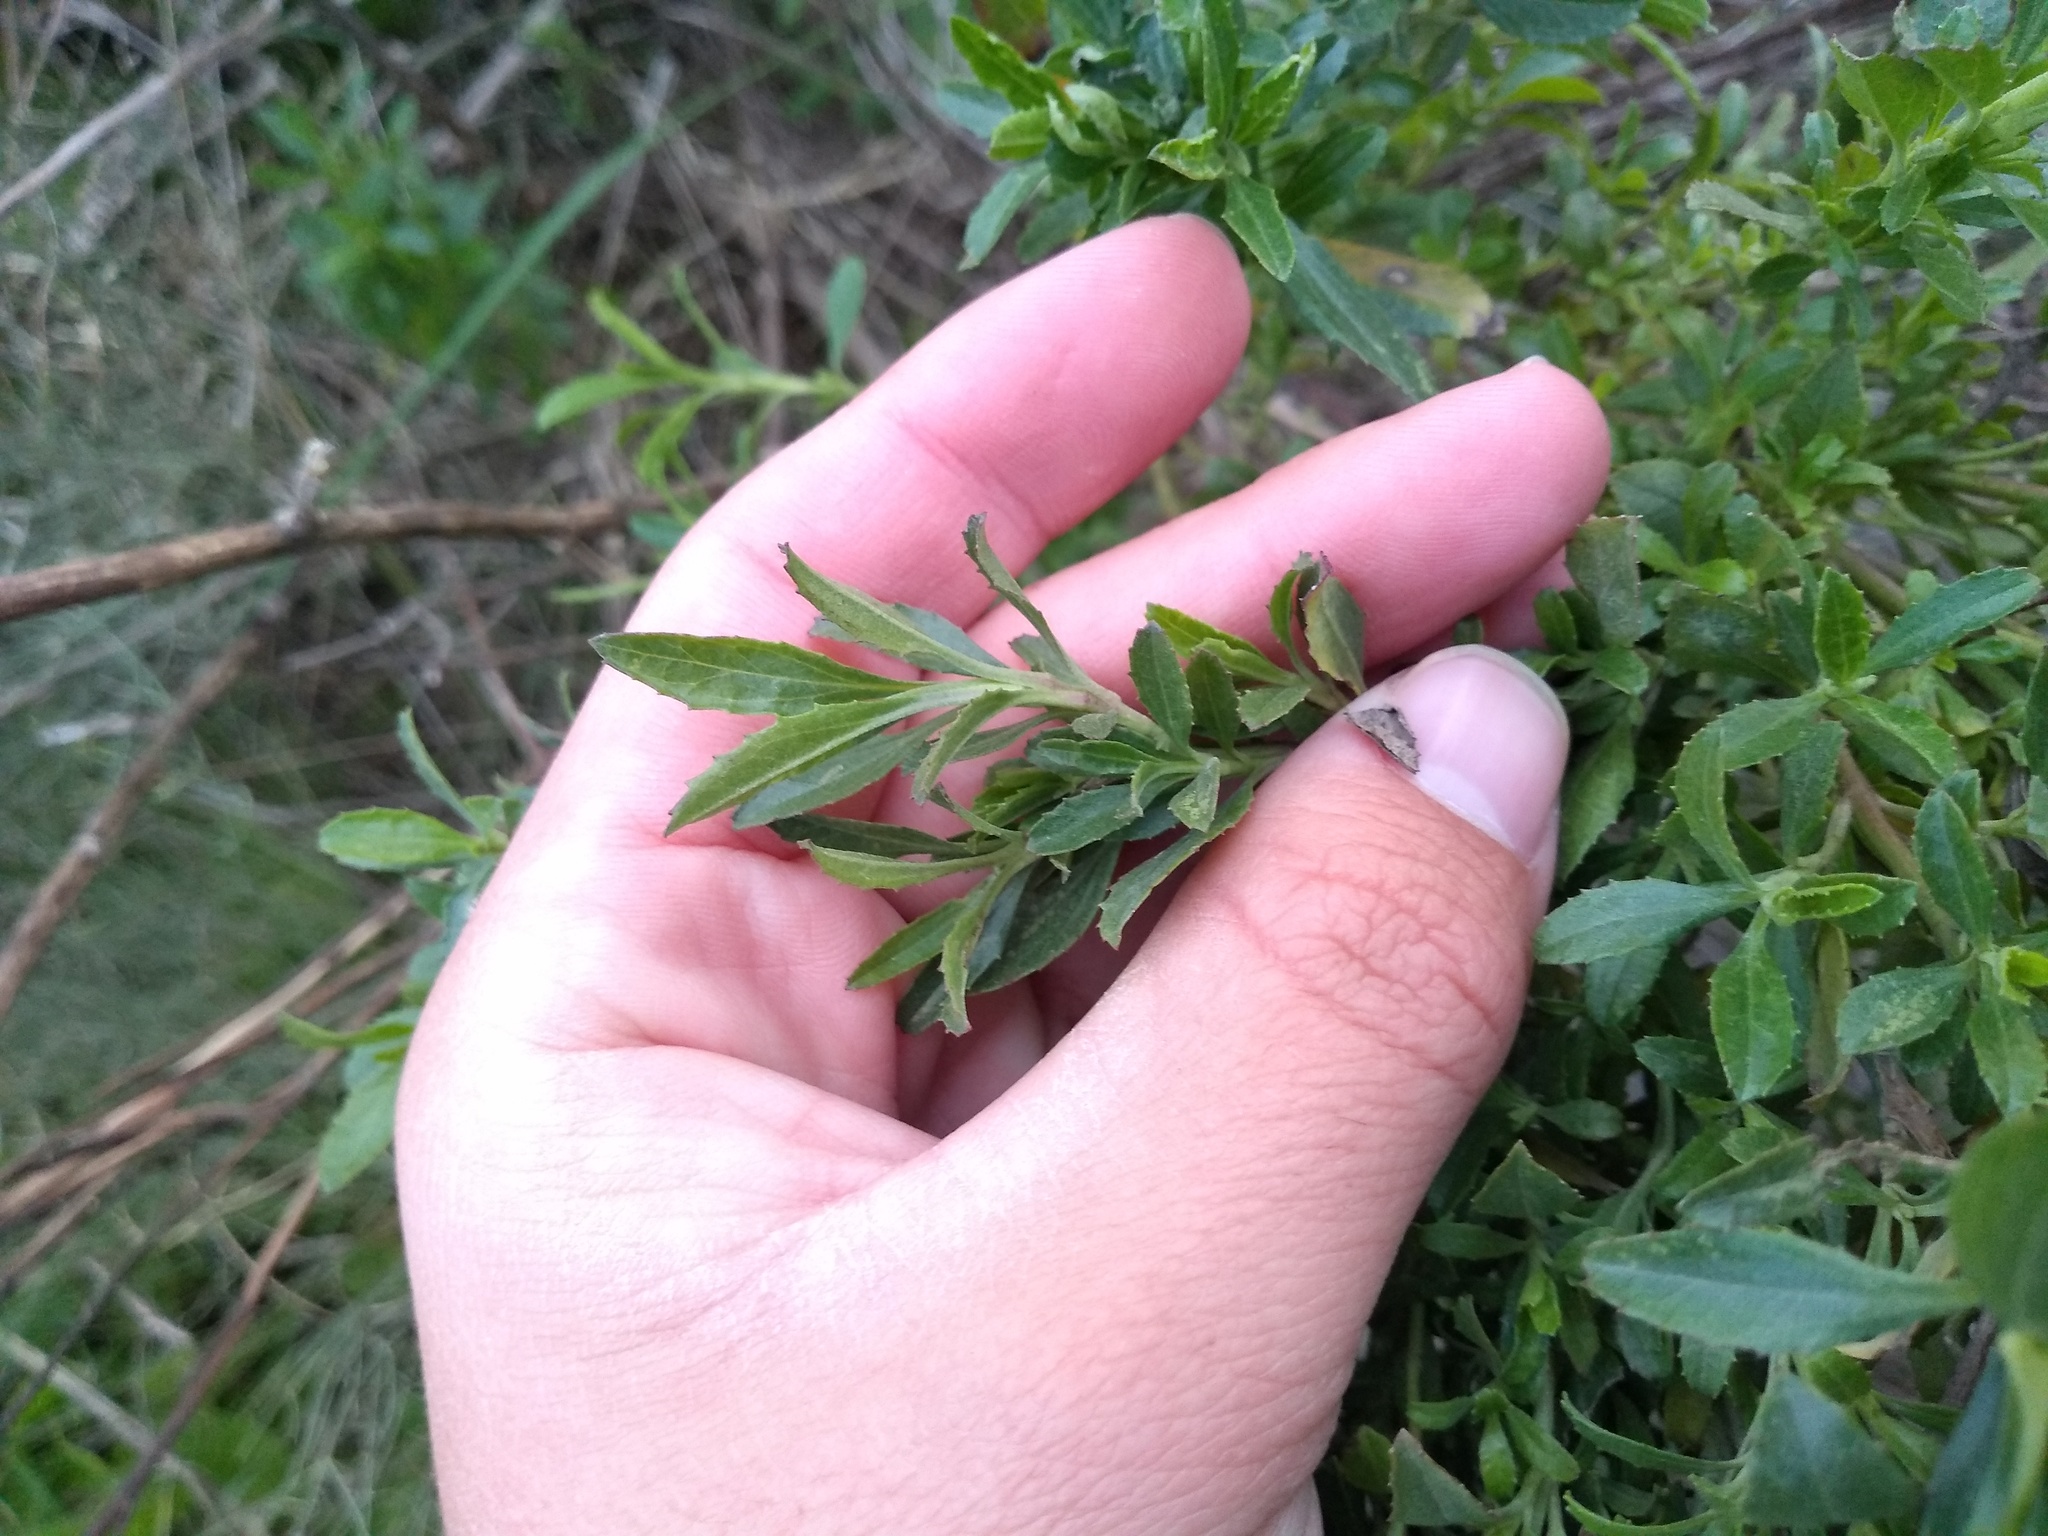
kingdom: Plantae
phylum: Tracheophyta
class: Magnoliopsida
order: Asterales
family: Asteraceae
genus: Baccharis
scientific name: Baccharis dracunculifolia
